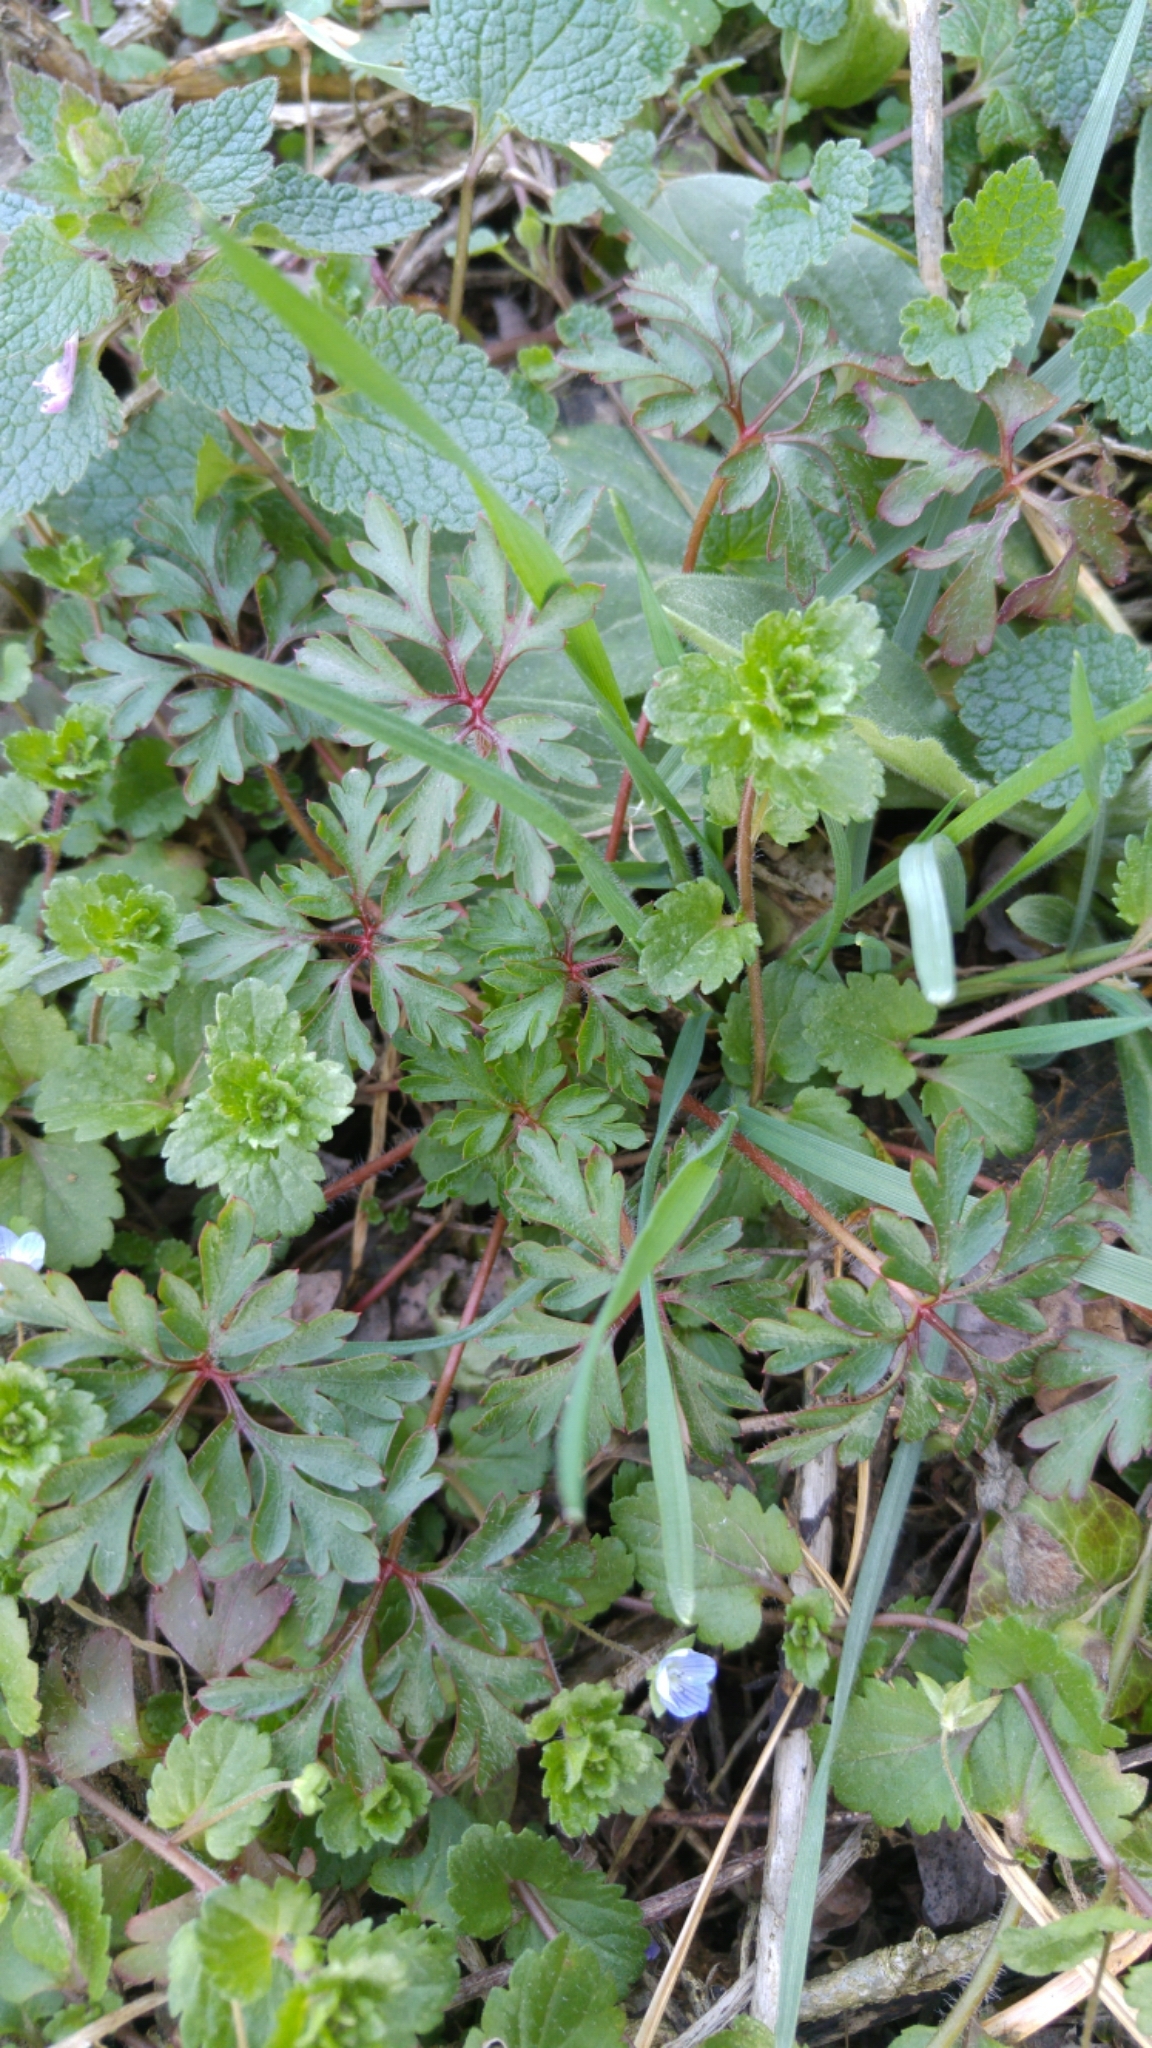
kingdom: Plantae
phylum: Tracheophyta
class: Magnoliopsida
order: Lamiales
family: Plantaginaceae
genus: Veronica
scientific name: Veronica persica
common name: Common field-speedwell
